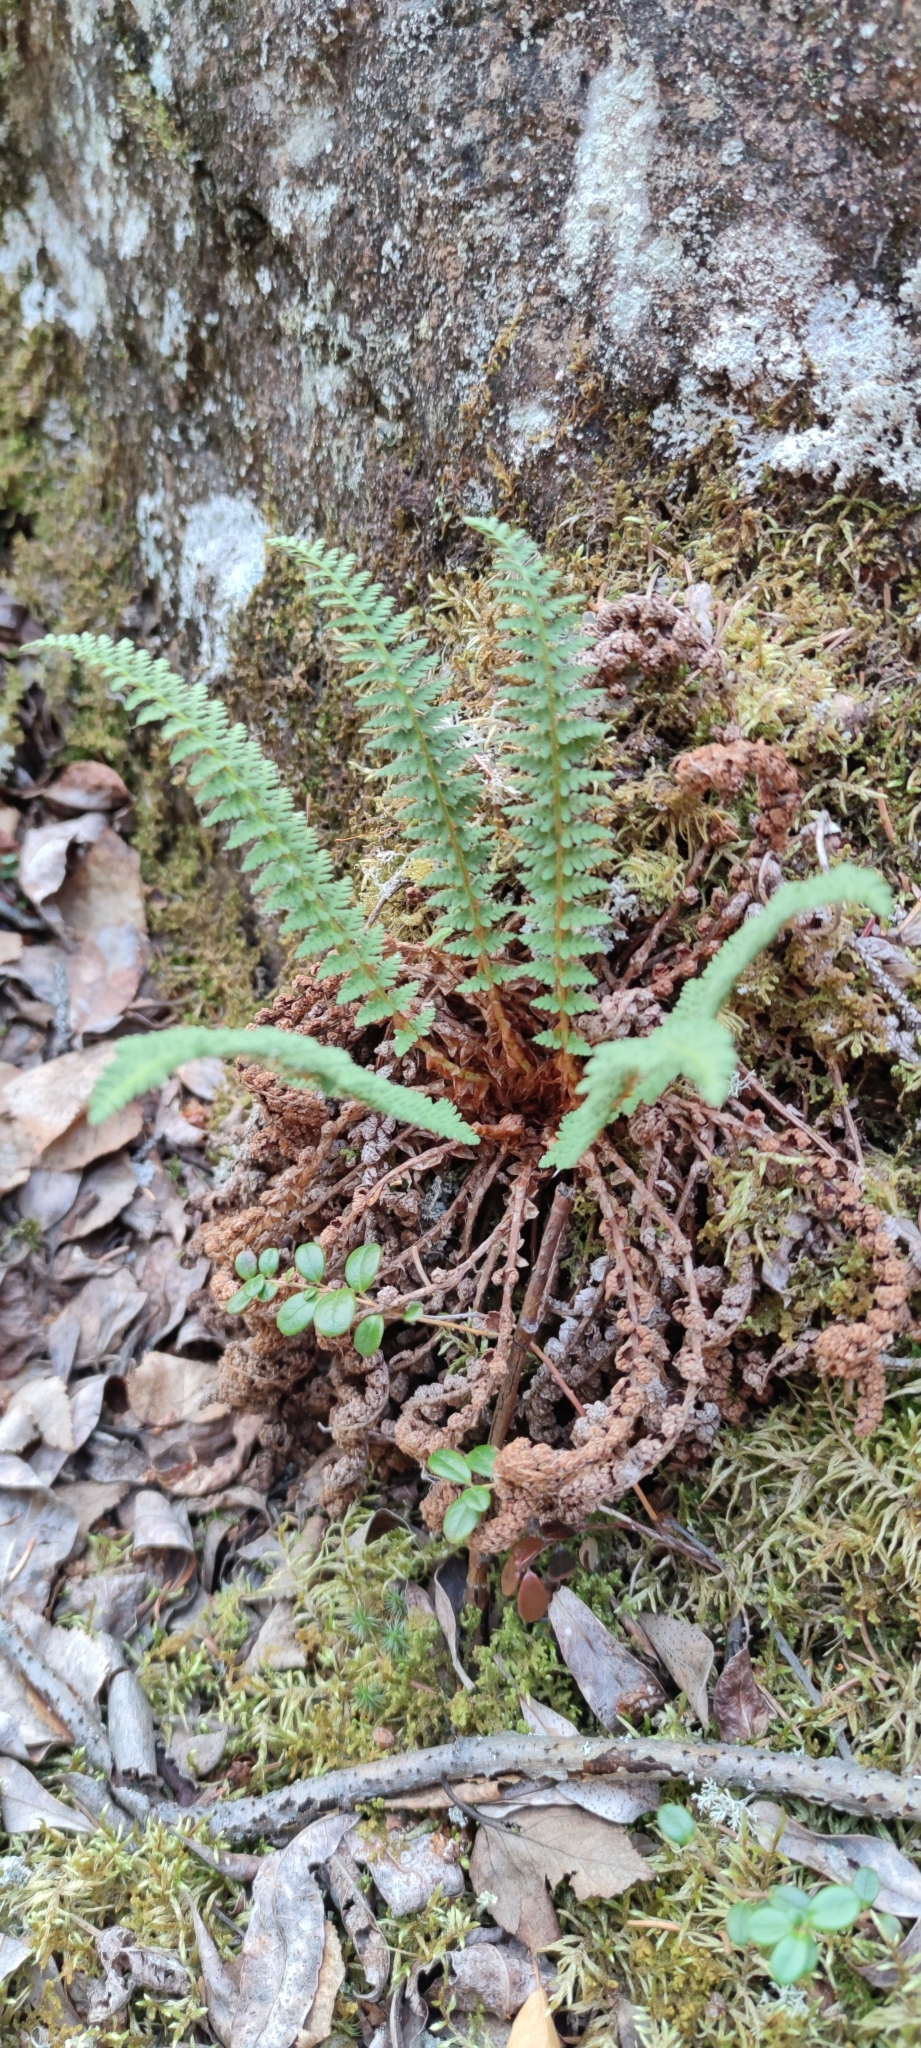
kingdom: Plantae
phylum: Tracheophyta
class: Polypodiopsida
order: Polypodiales
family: Dryopteridaceae
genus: Dryopteris
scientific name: Dryopteris fragrans
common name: Fragrant wood fern
